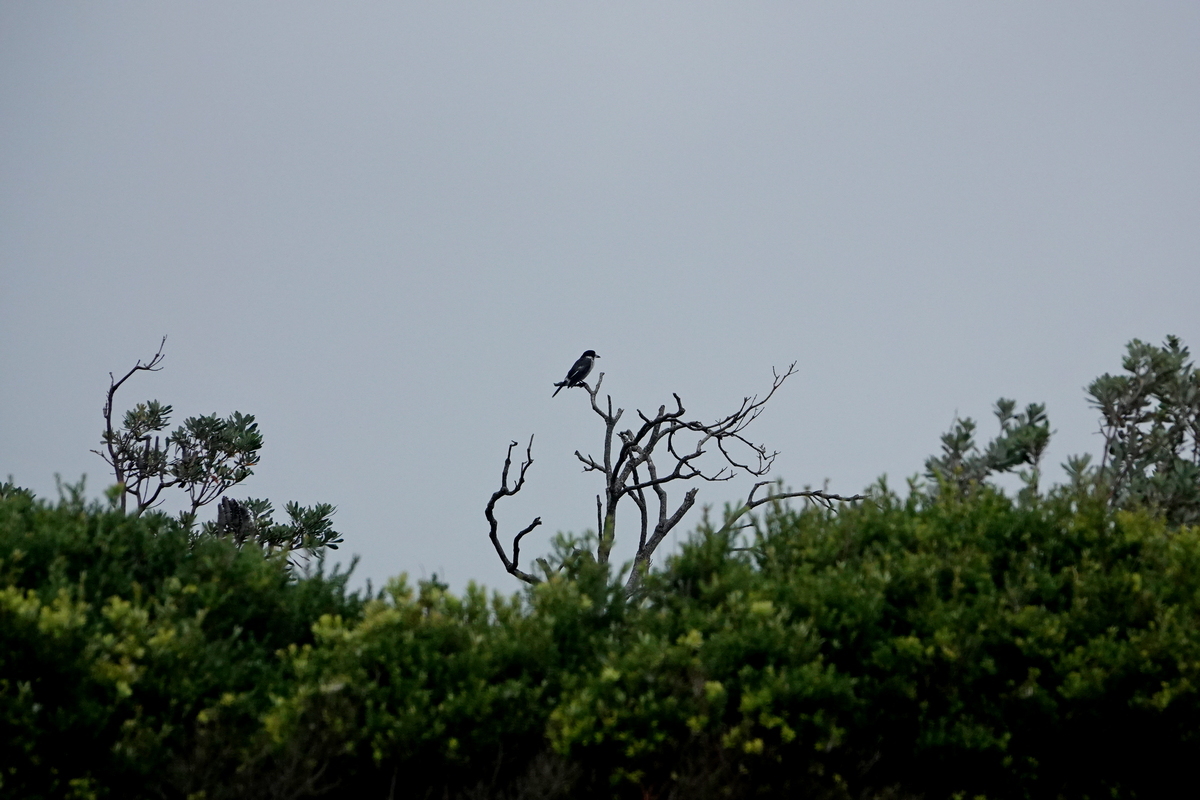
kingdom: Animalia
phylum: Chordata
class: Aves
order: Passeriformes
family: Cracticidae
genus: Cracticus
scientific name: Cracticus torquatus
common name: Grey butcherbird
